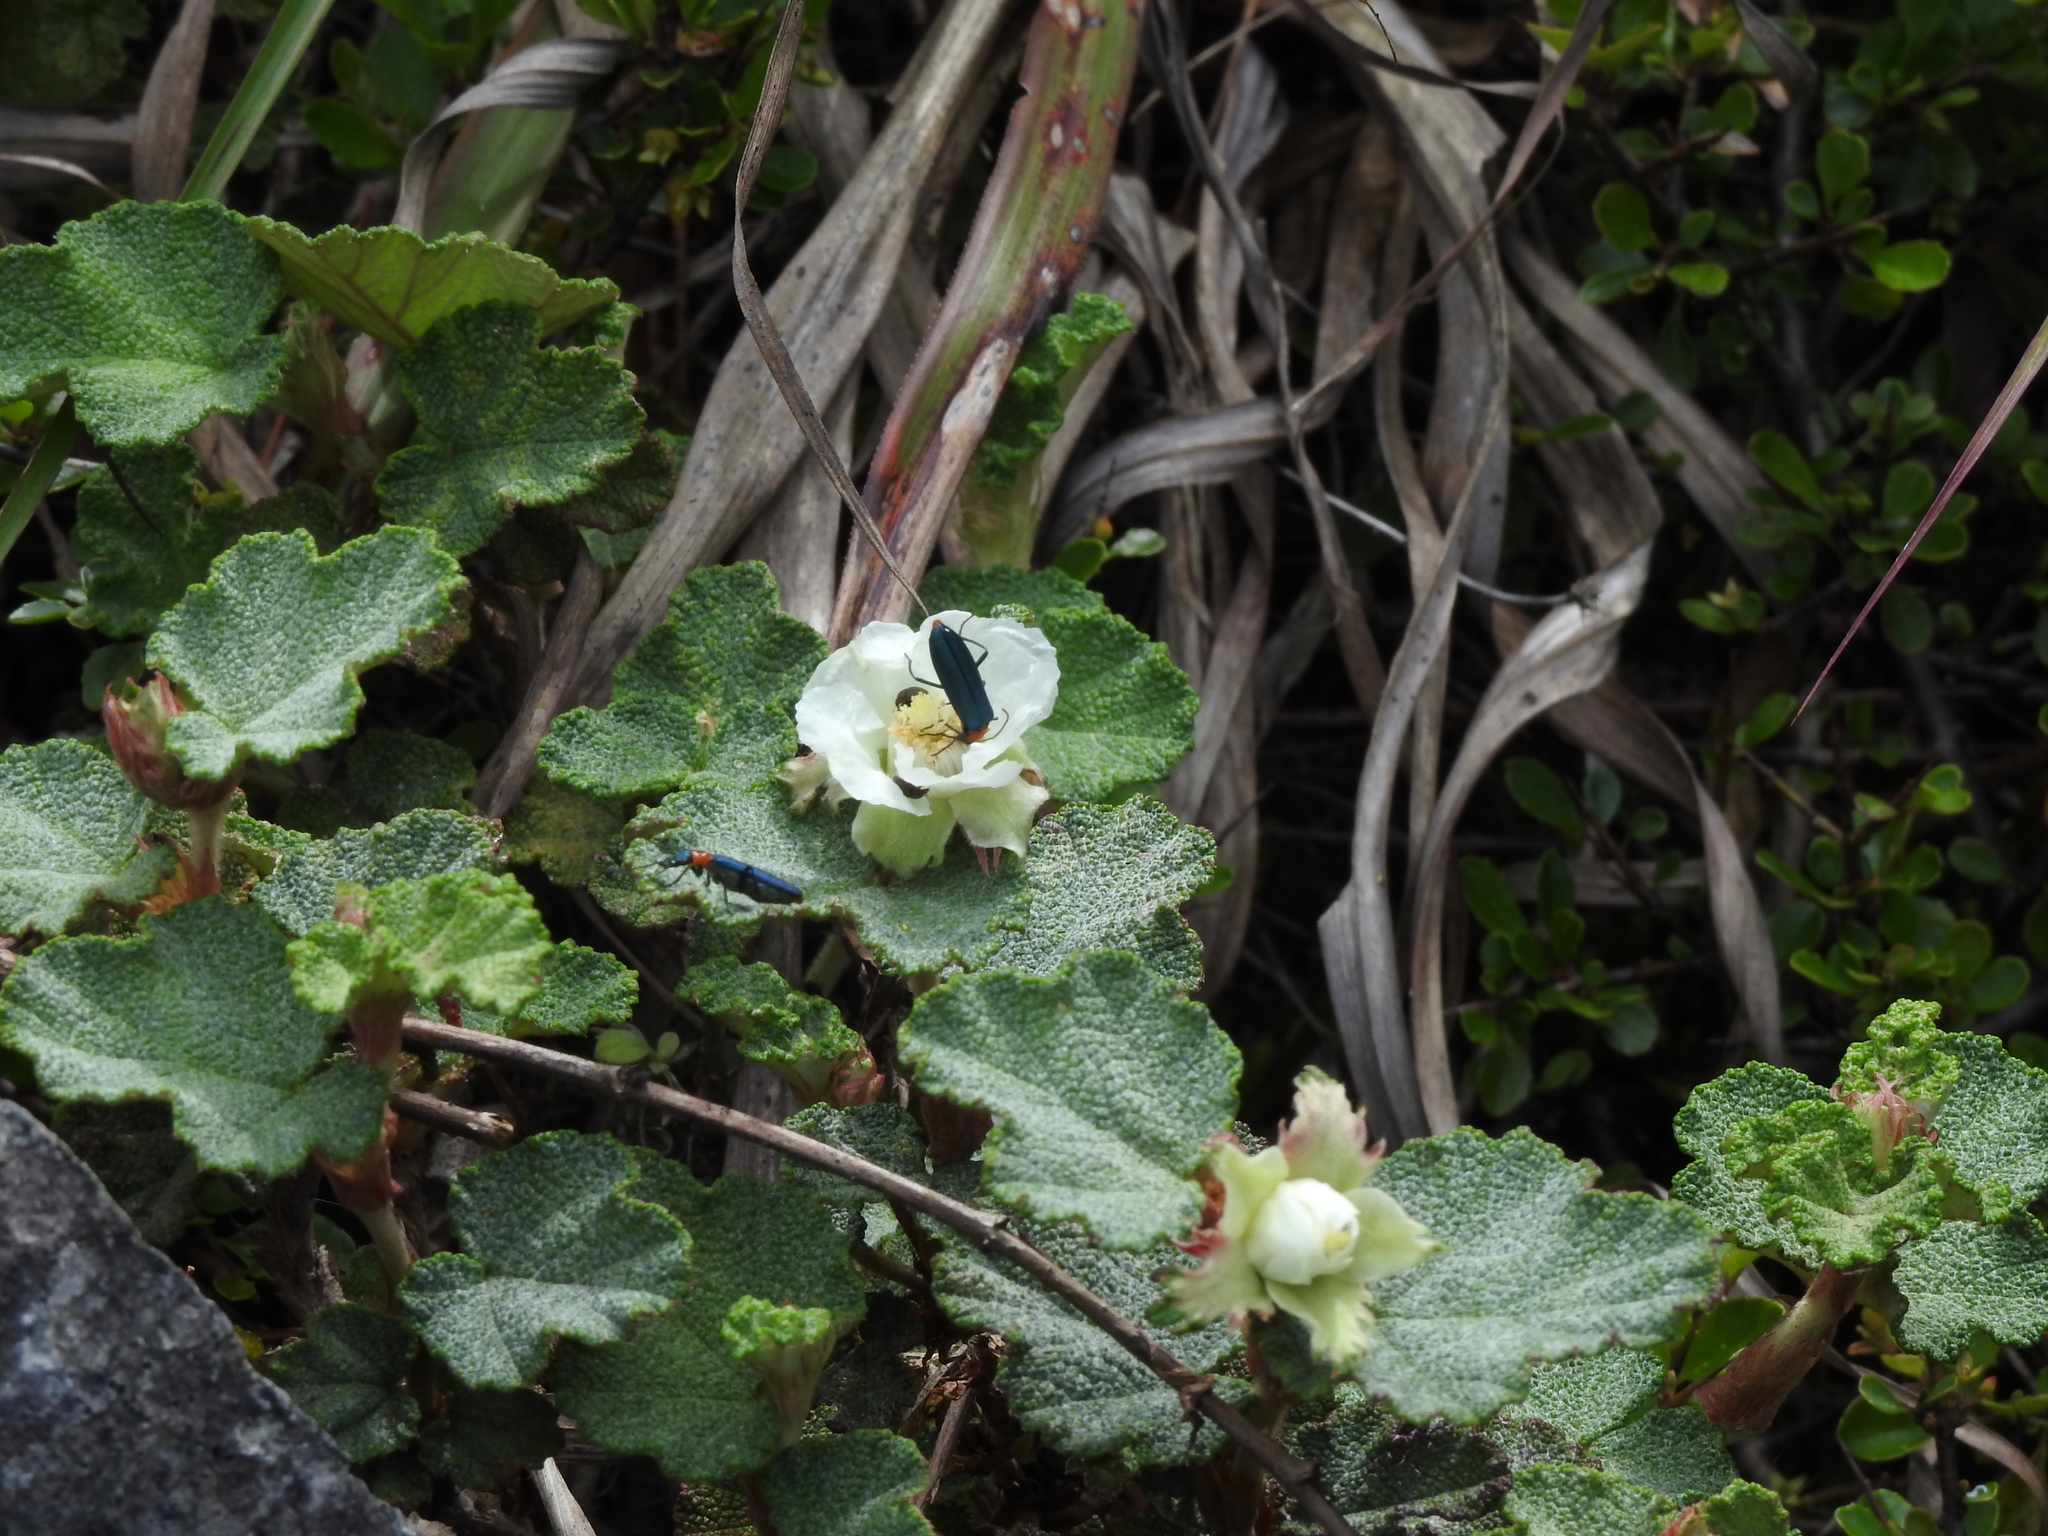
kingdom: Plantae
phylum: Tracheophyta
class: Magnoliopsida
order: Rosales
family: Rosaceae
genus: Rubus
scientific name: Rubus rolfei
